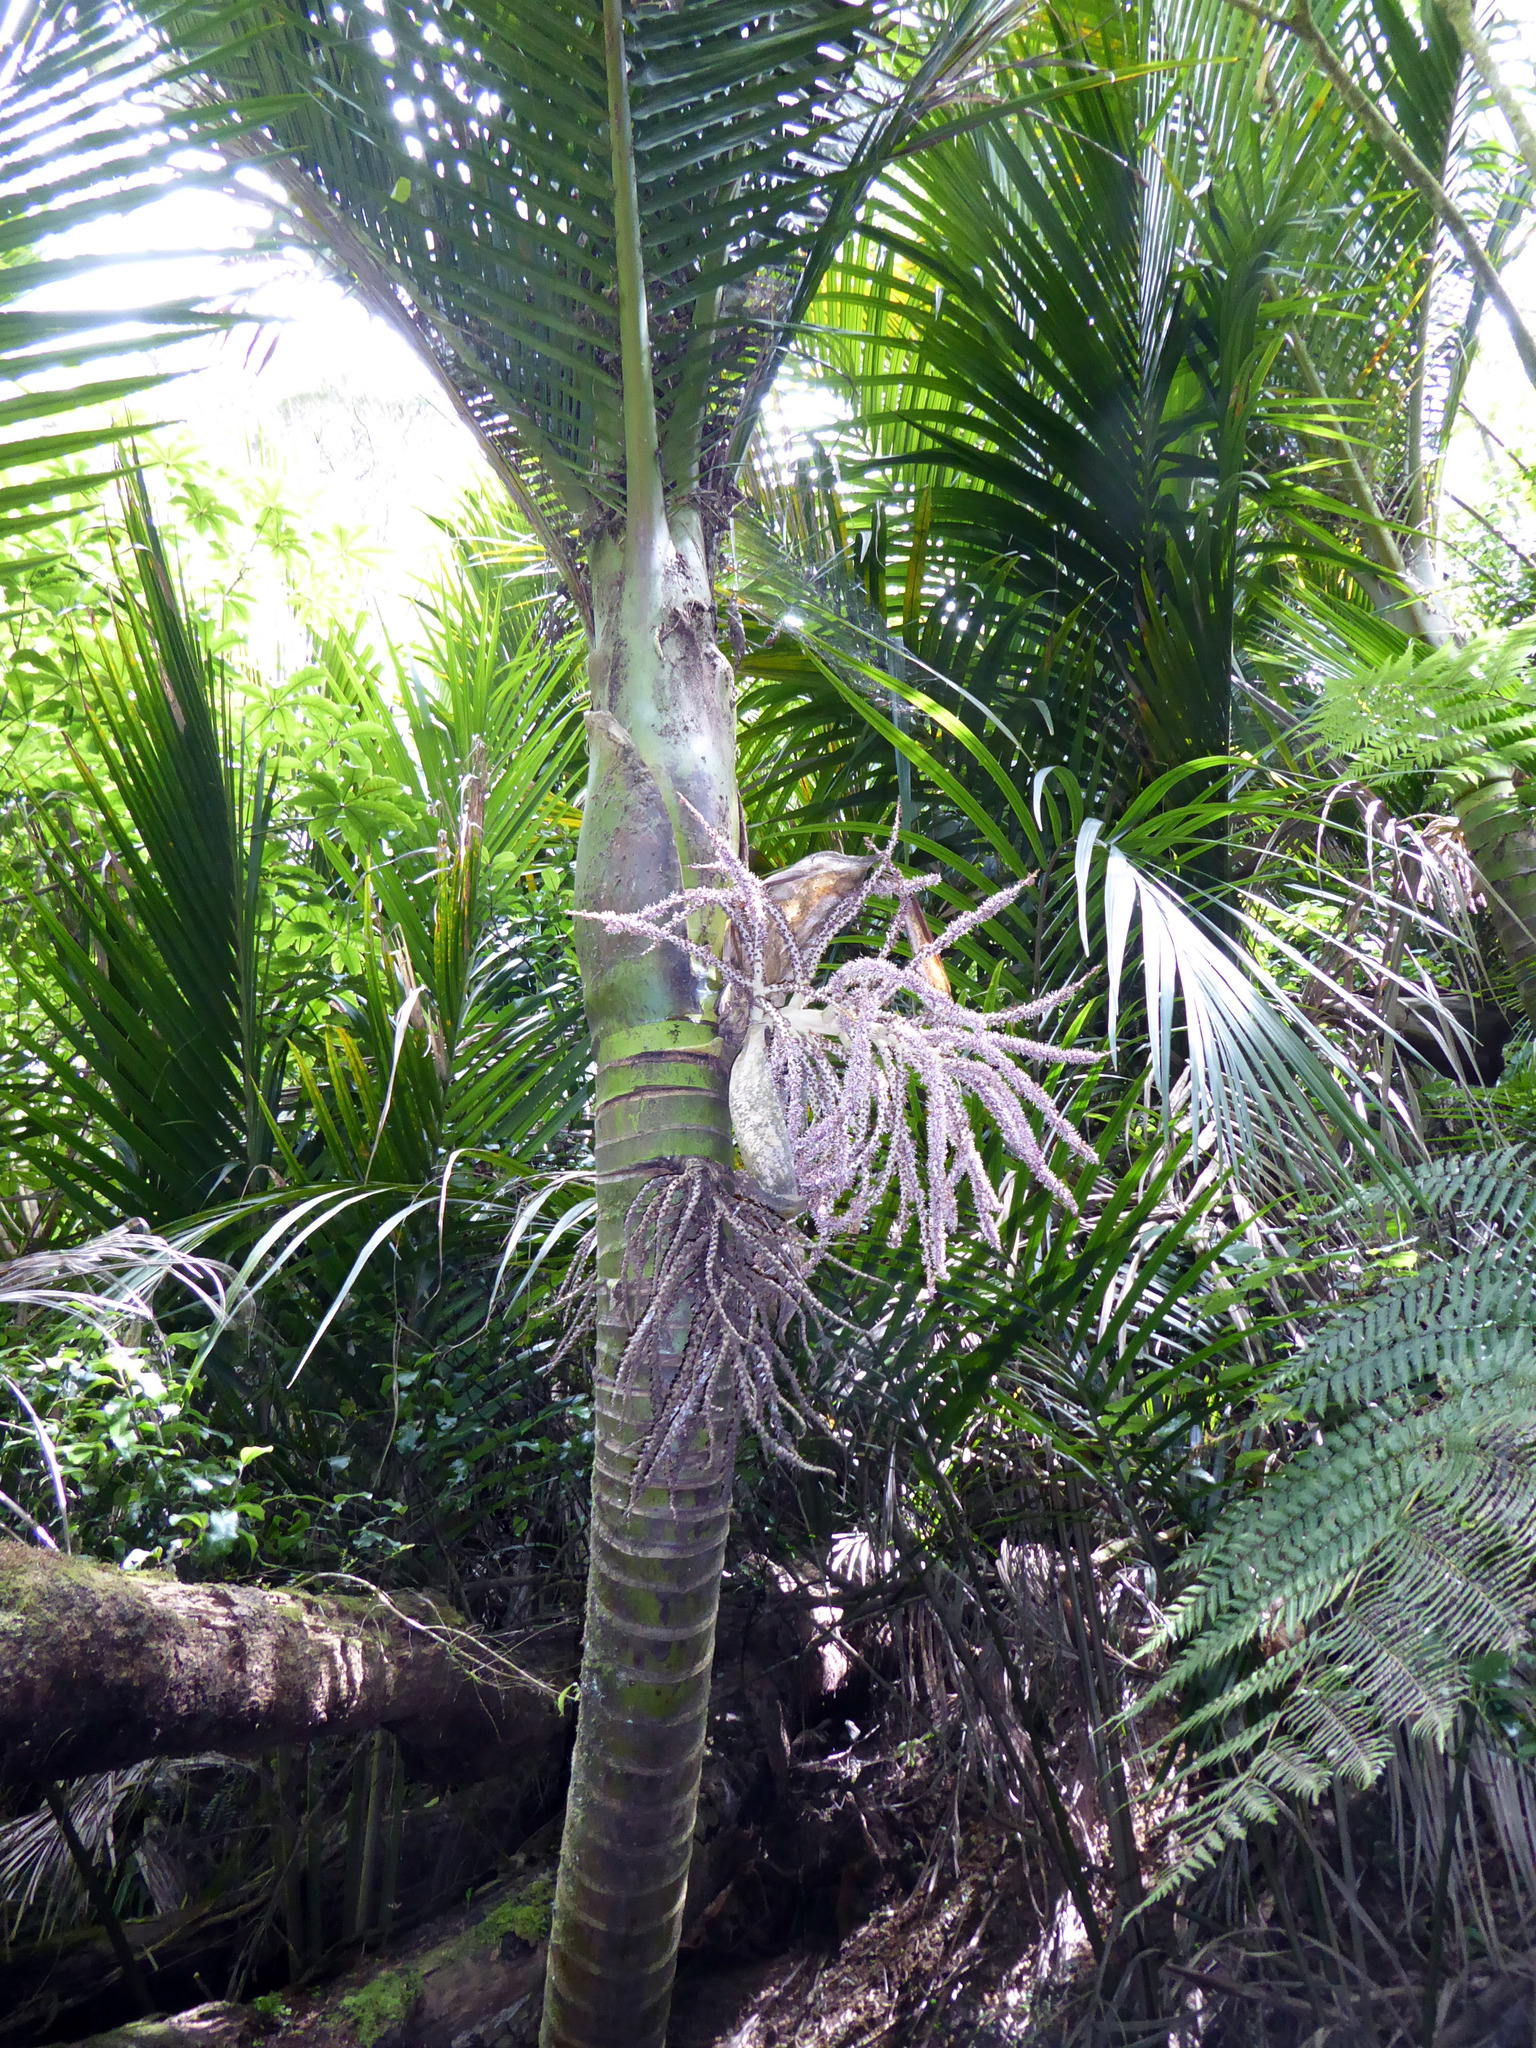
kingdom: Plantae
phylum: Tracheophyta
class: Liliopsida
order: Arecales
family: Arecaceae
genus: Rhopalostylis
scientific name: Rhopalostylis sapida
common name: Feather-duster palm
